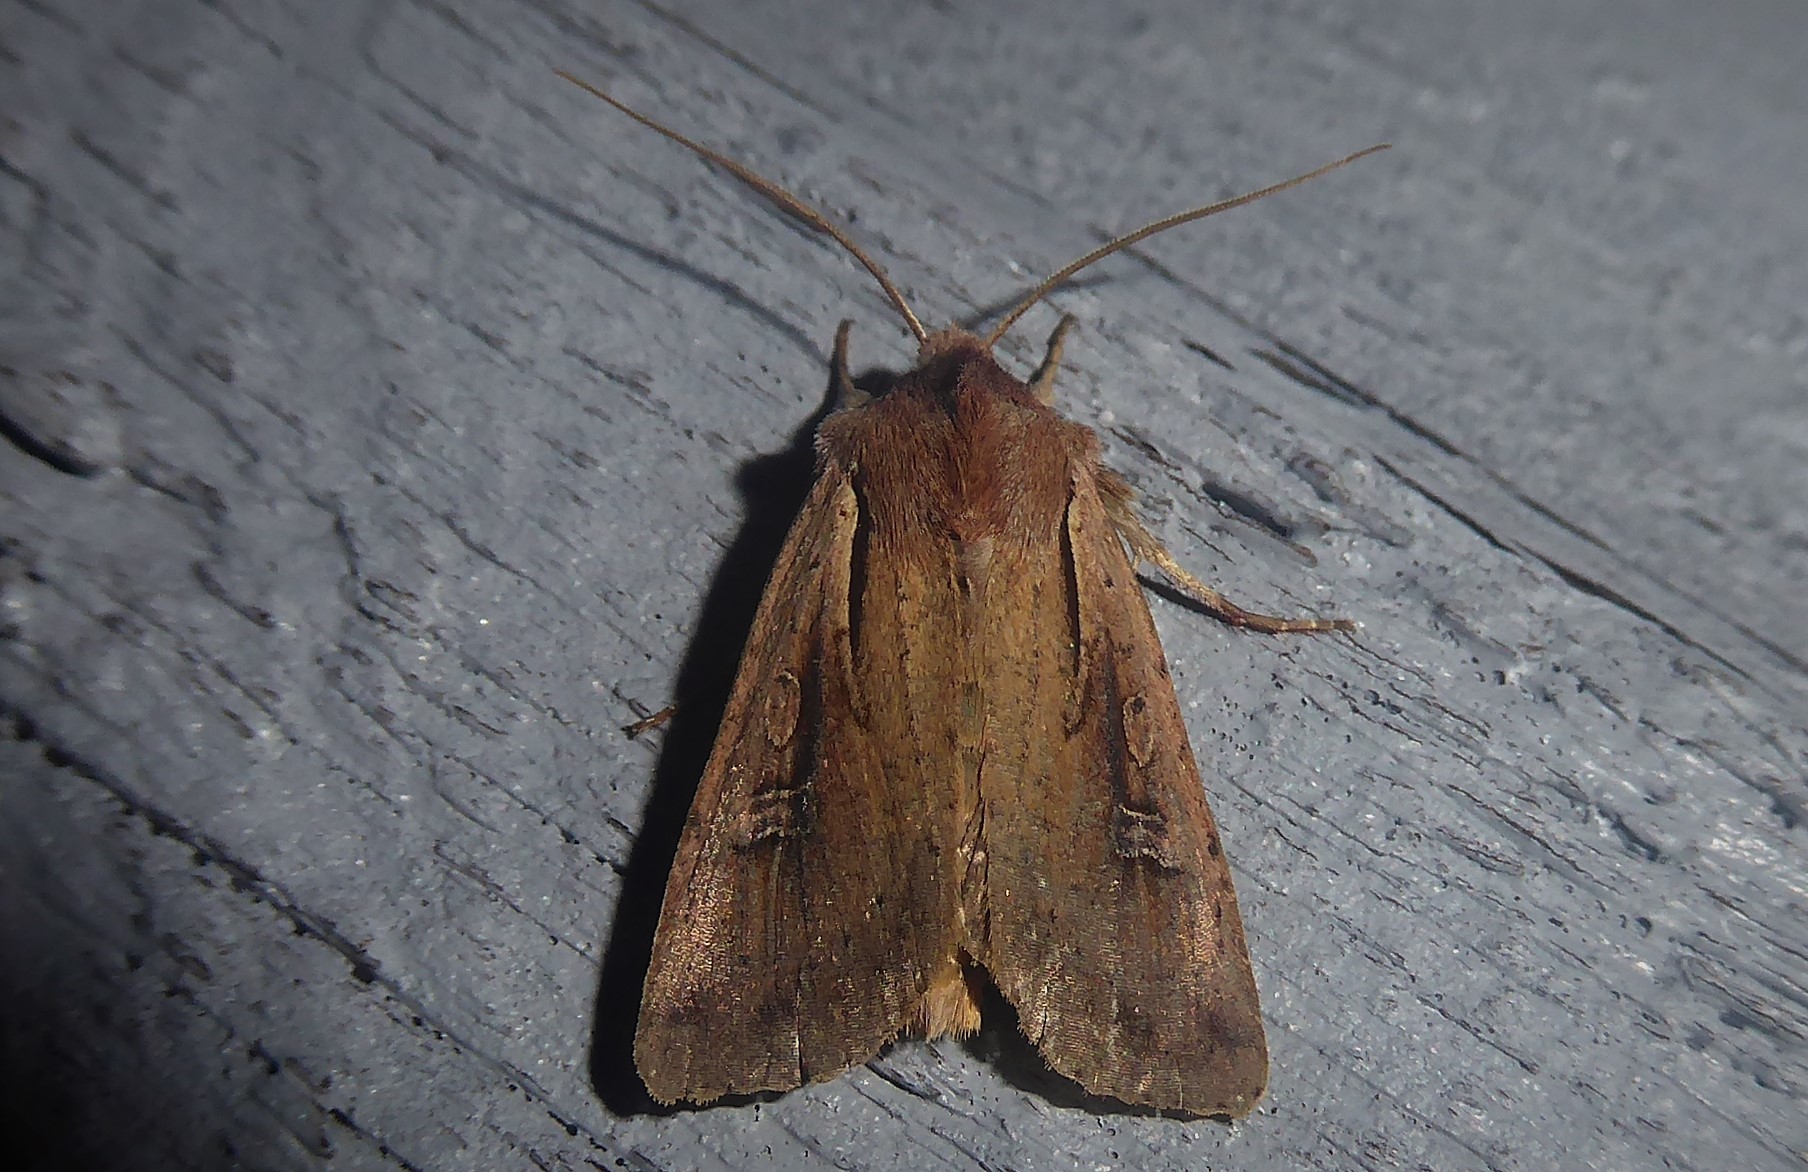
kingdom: Animalia
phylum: Arthropoda
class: Insecta
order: Lepidoptera
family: Noctuidae
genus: Ichneutica
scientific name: Ichneutica atristriga
